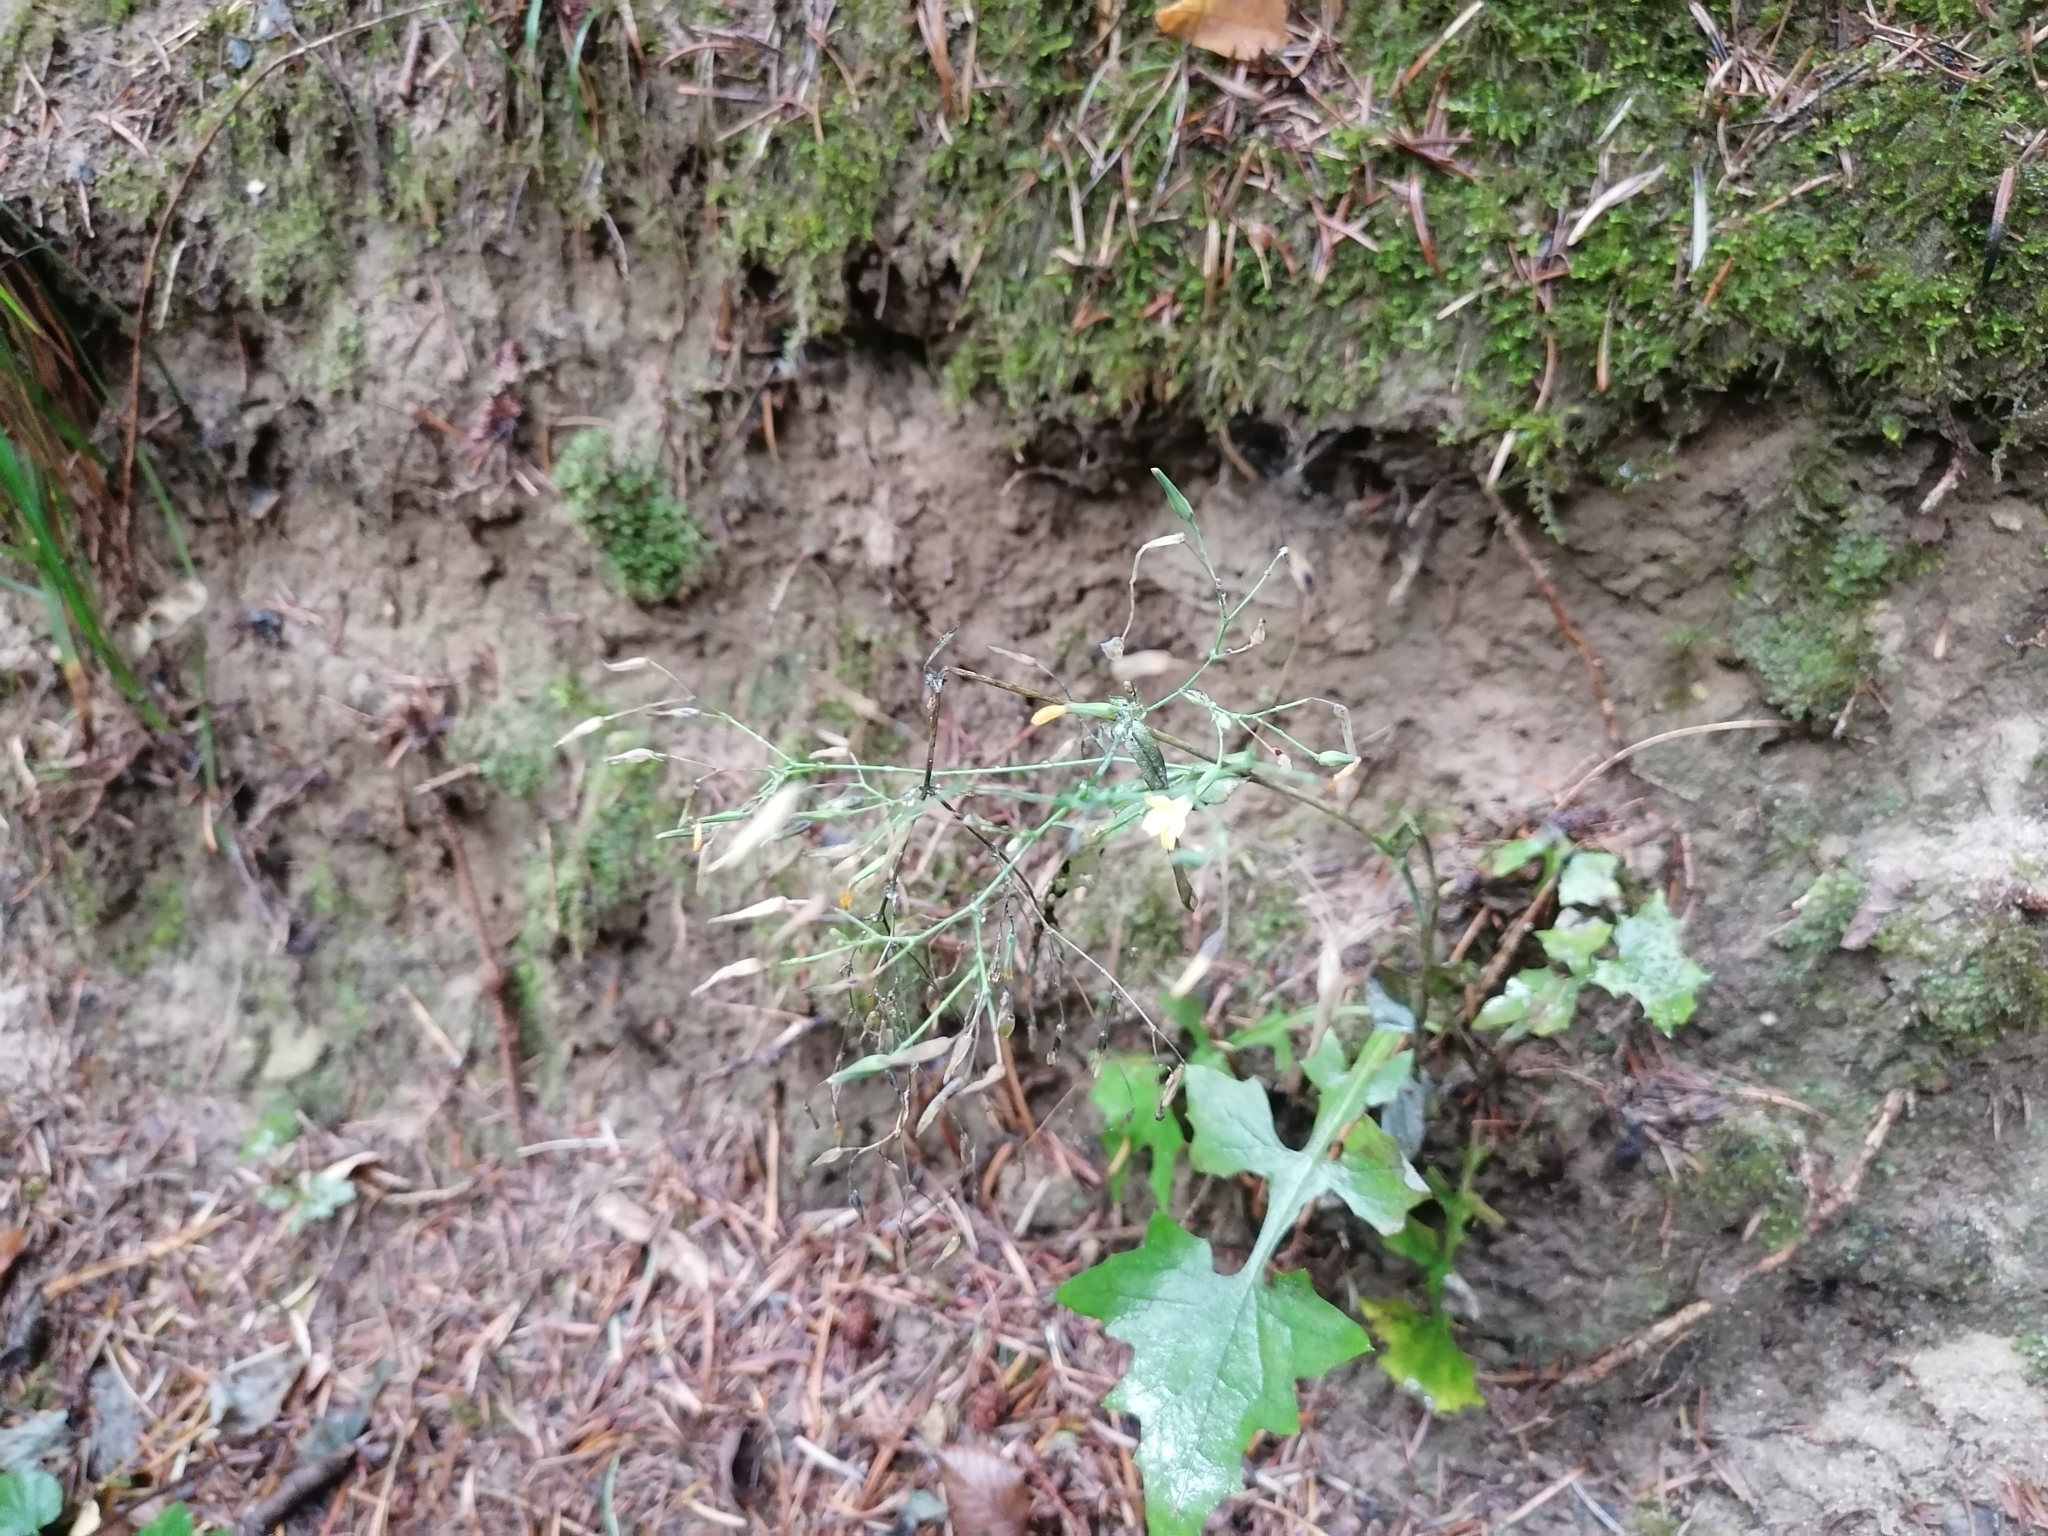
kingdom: Plantae
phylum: Tracheophyta
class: Magnoliopsida
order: Asterales
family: Asteraceae
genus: Mycelis
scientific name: Mycelis muralis
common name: Wall lettuce
